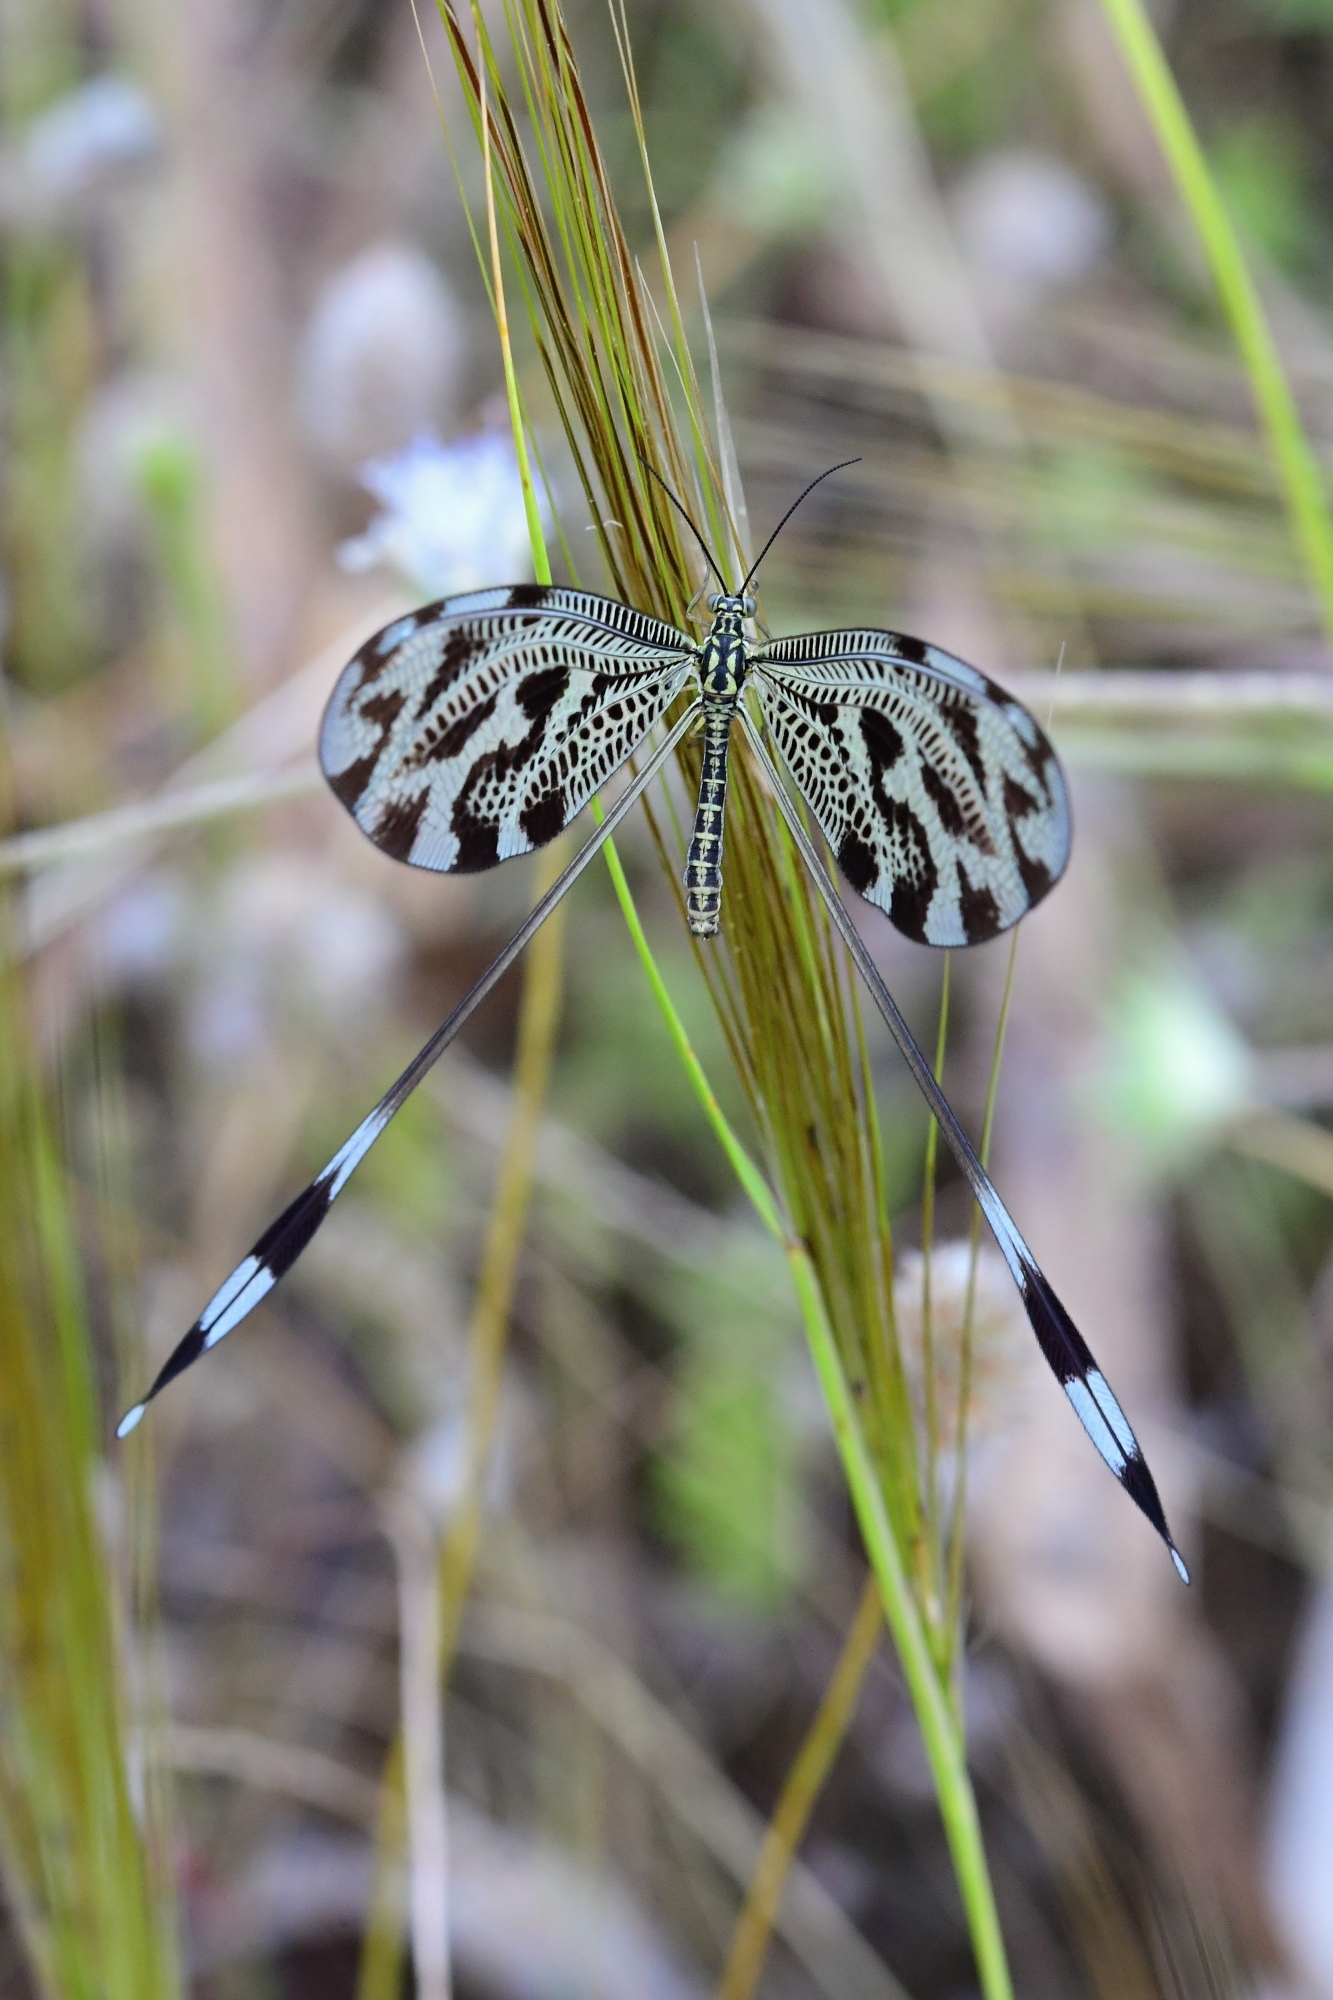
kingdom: Animalia
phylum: Arthropoda
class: Insecta
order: Neuroptera
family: Nemopteridae
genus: Nemoptera
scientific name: Nemoptera coa
